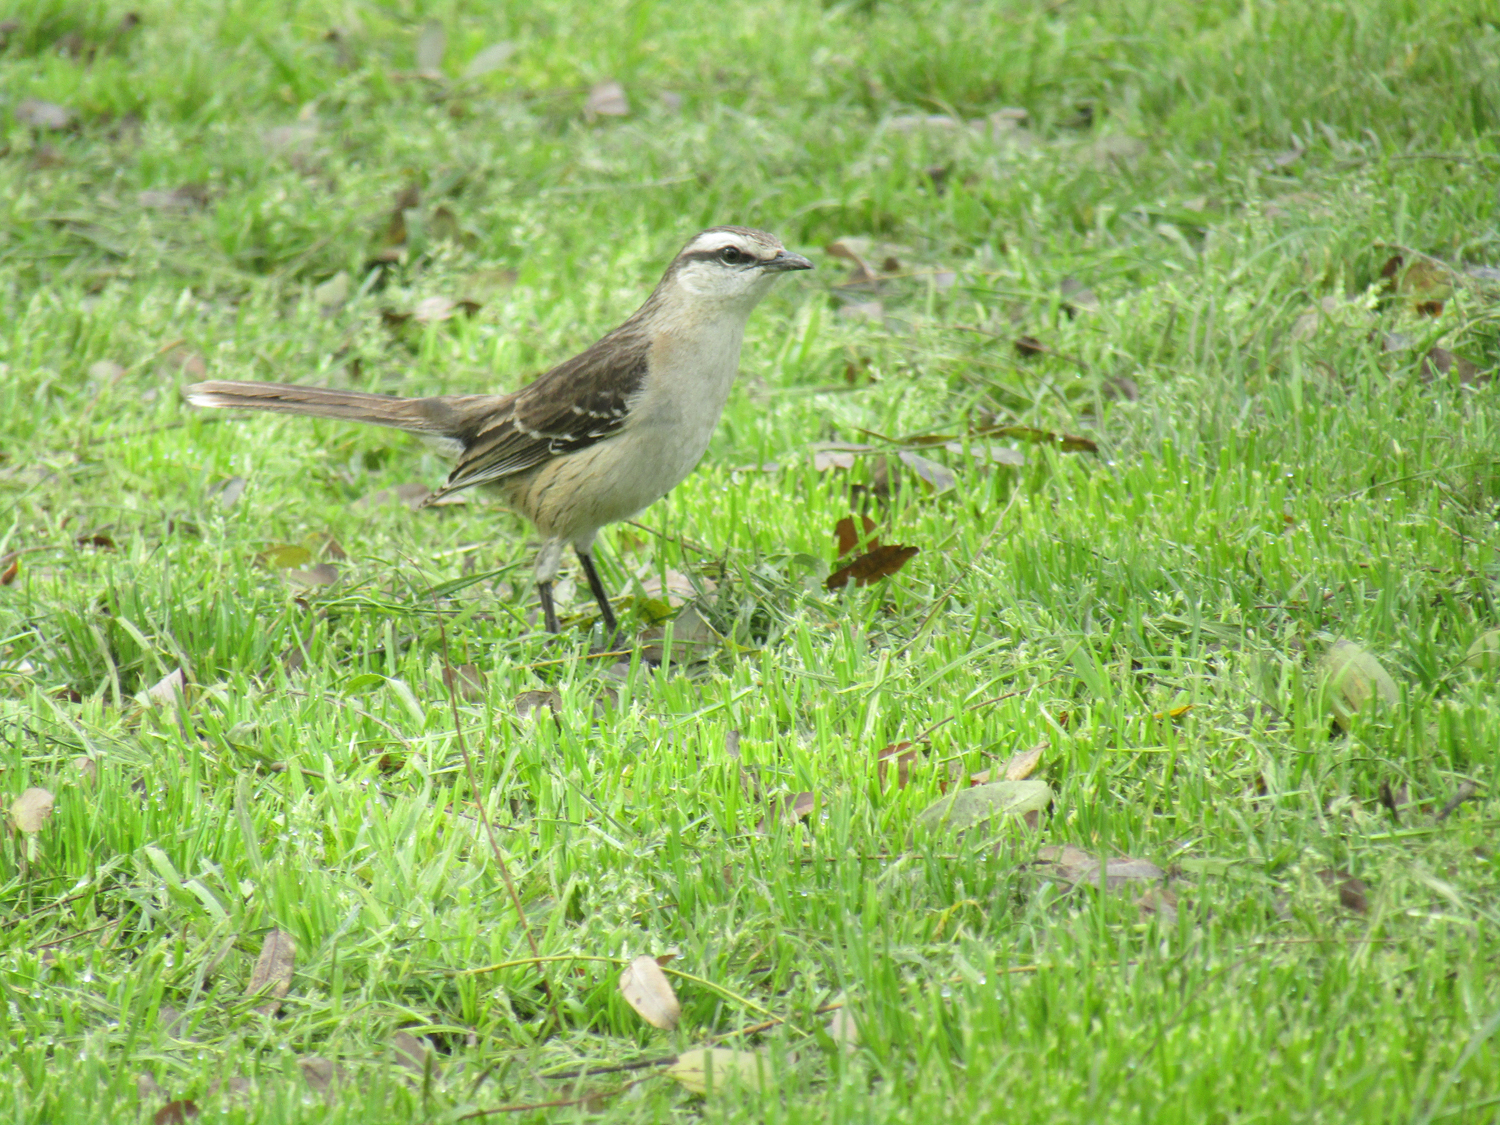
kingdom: Animalia
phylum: Chordata
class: Aves
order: Passeriformes
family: Mimidae
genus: Mimus
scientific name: Mimus saturninus
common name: Chalk-browed mockingbird
